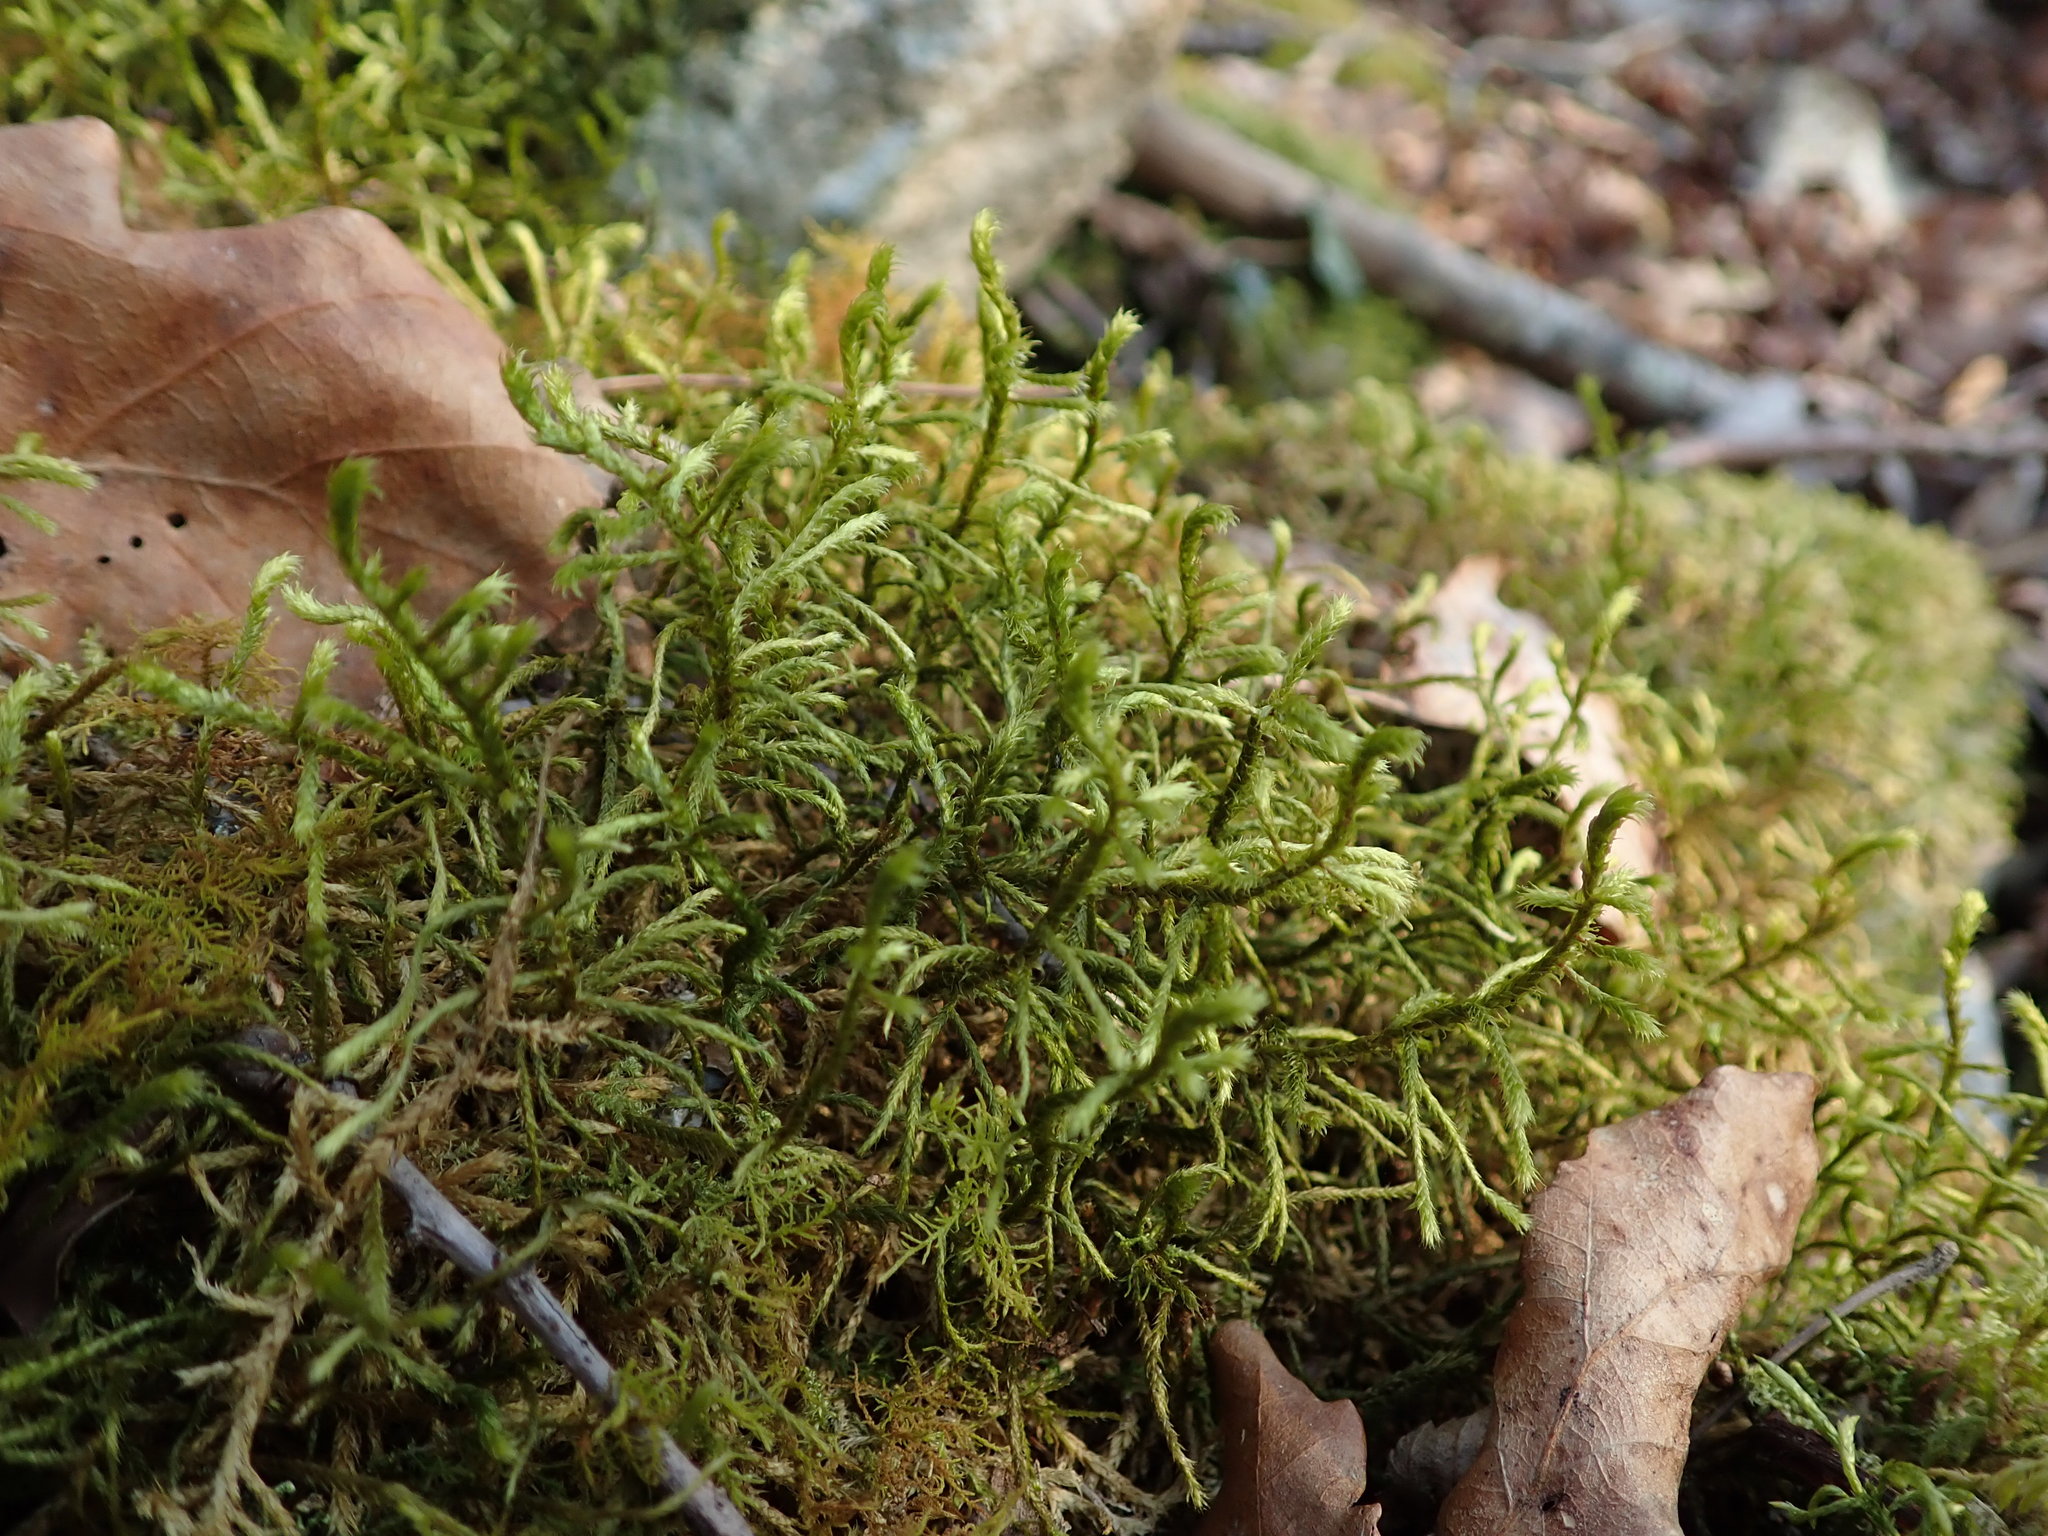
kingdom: Plantae
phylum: Bryophyta
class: Bryopsida
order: Hypnales
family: Antitrichiaceae
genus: Antitrichia
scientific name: Antitrichia curtipendula
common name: Pendulous wing-moss
